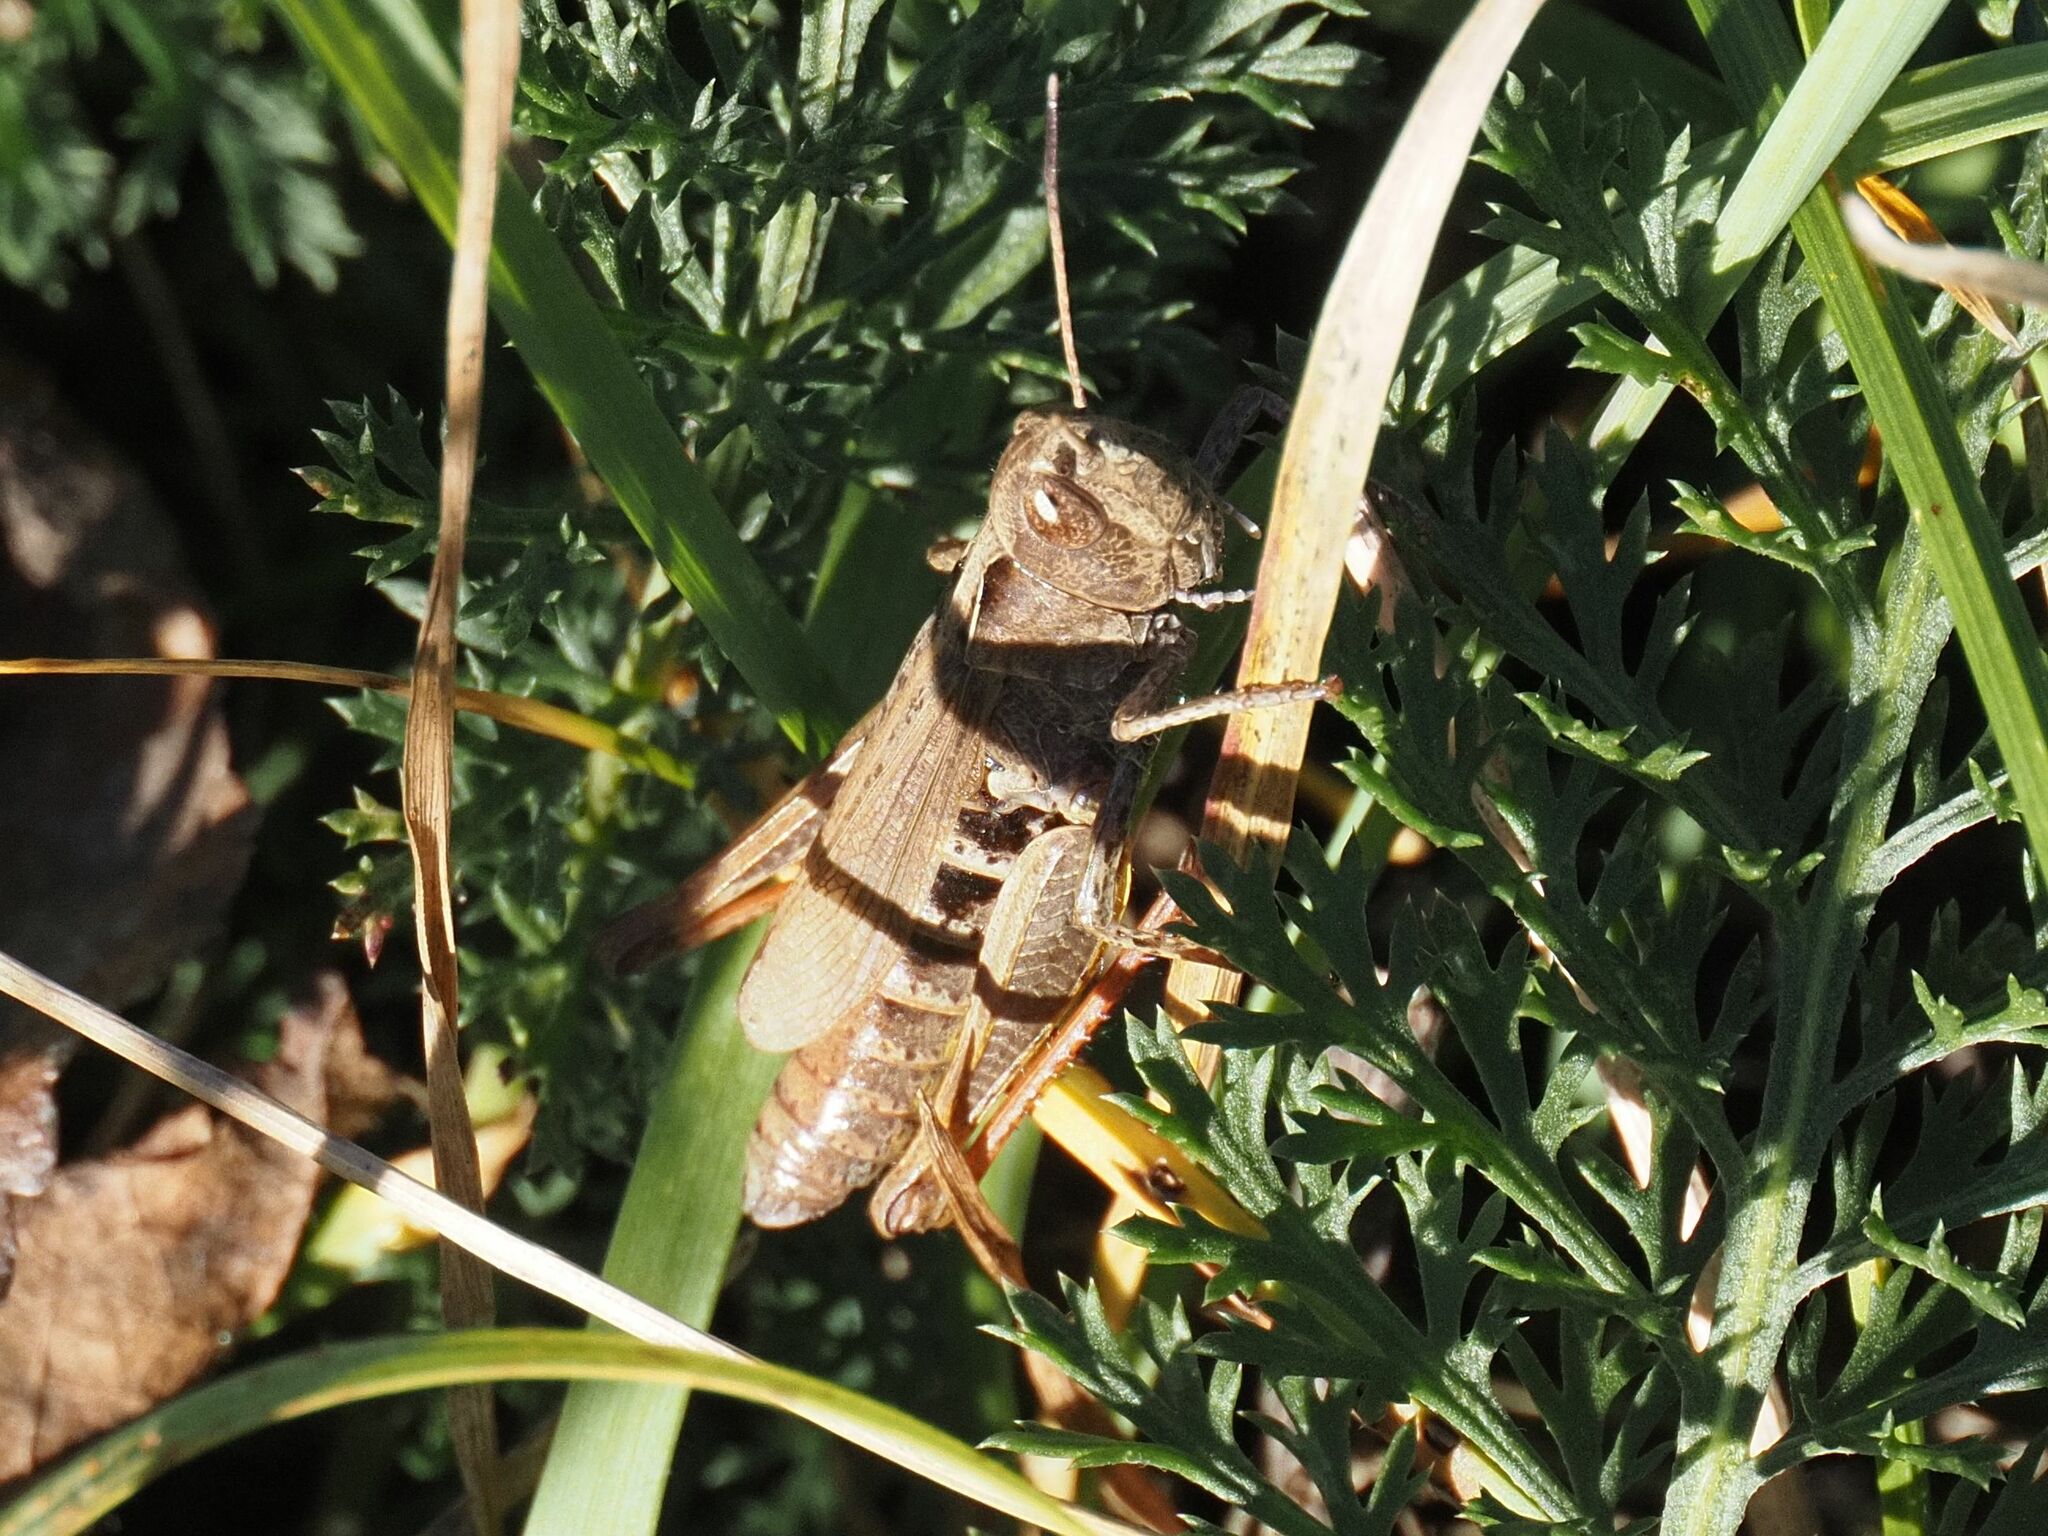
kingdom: Animalia
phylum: Arthropoda
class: Insecta
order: Orthoptera
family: Acrididae
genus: Gomphocerippus
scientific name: Gomphocerippus rufus
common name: Rufous grasshopper
